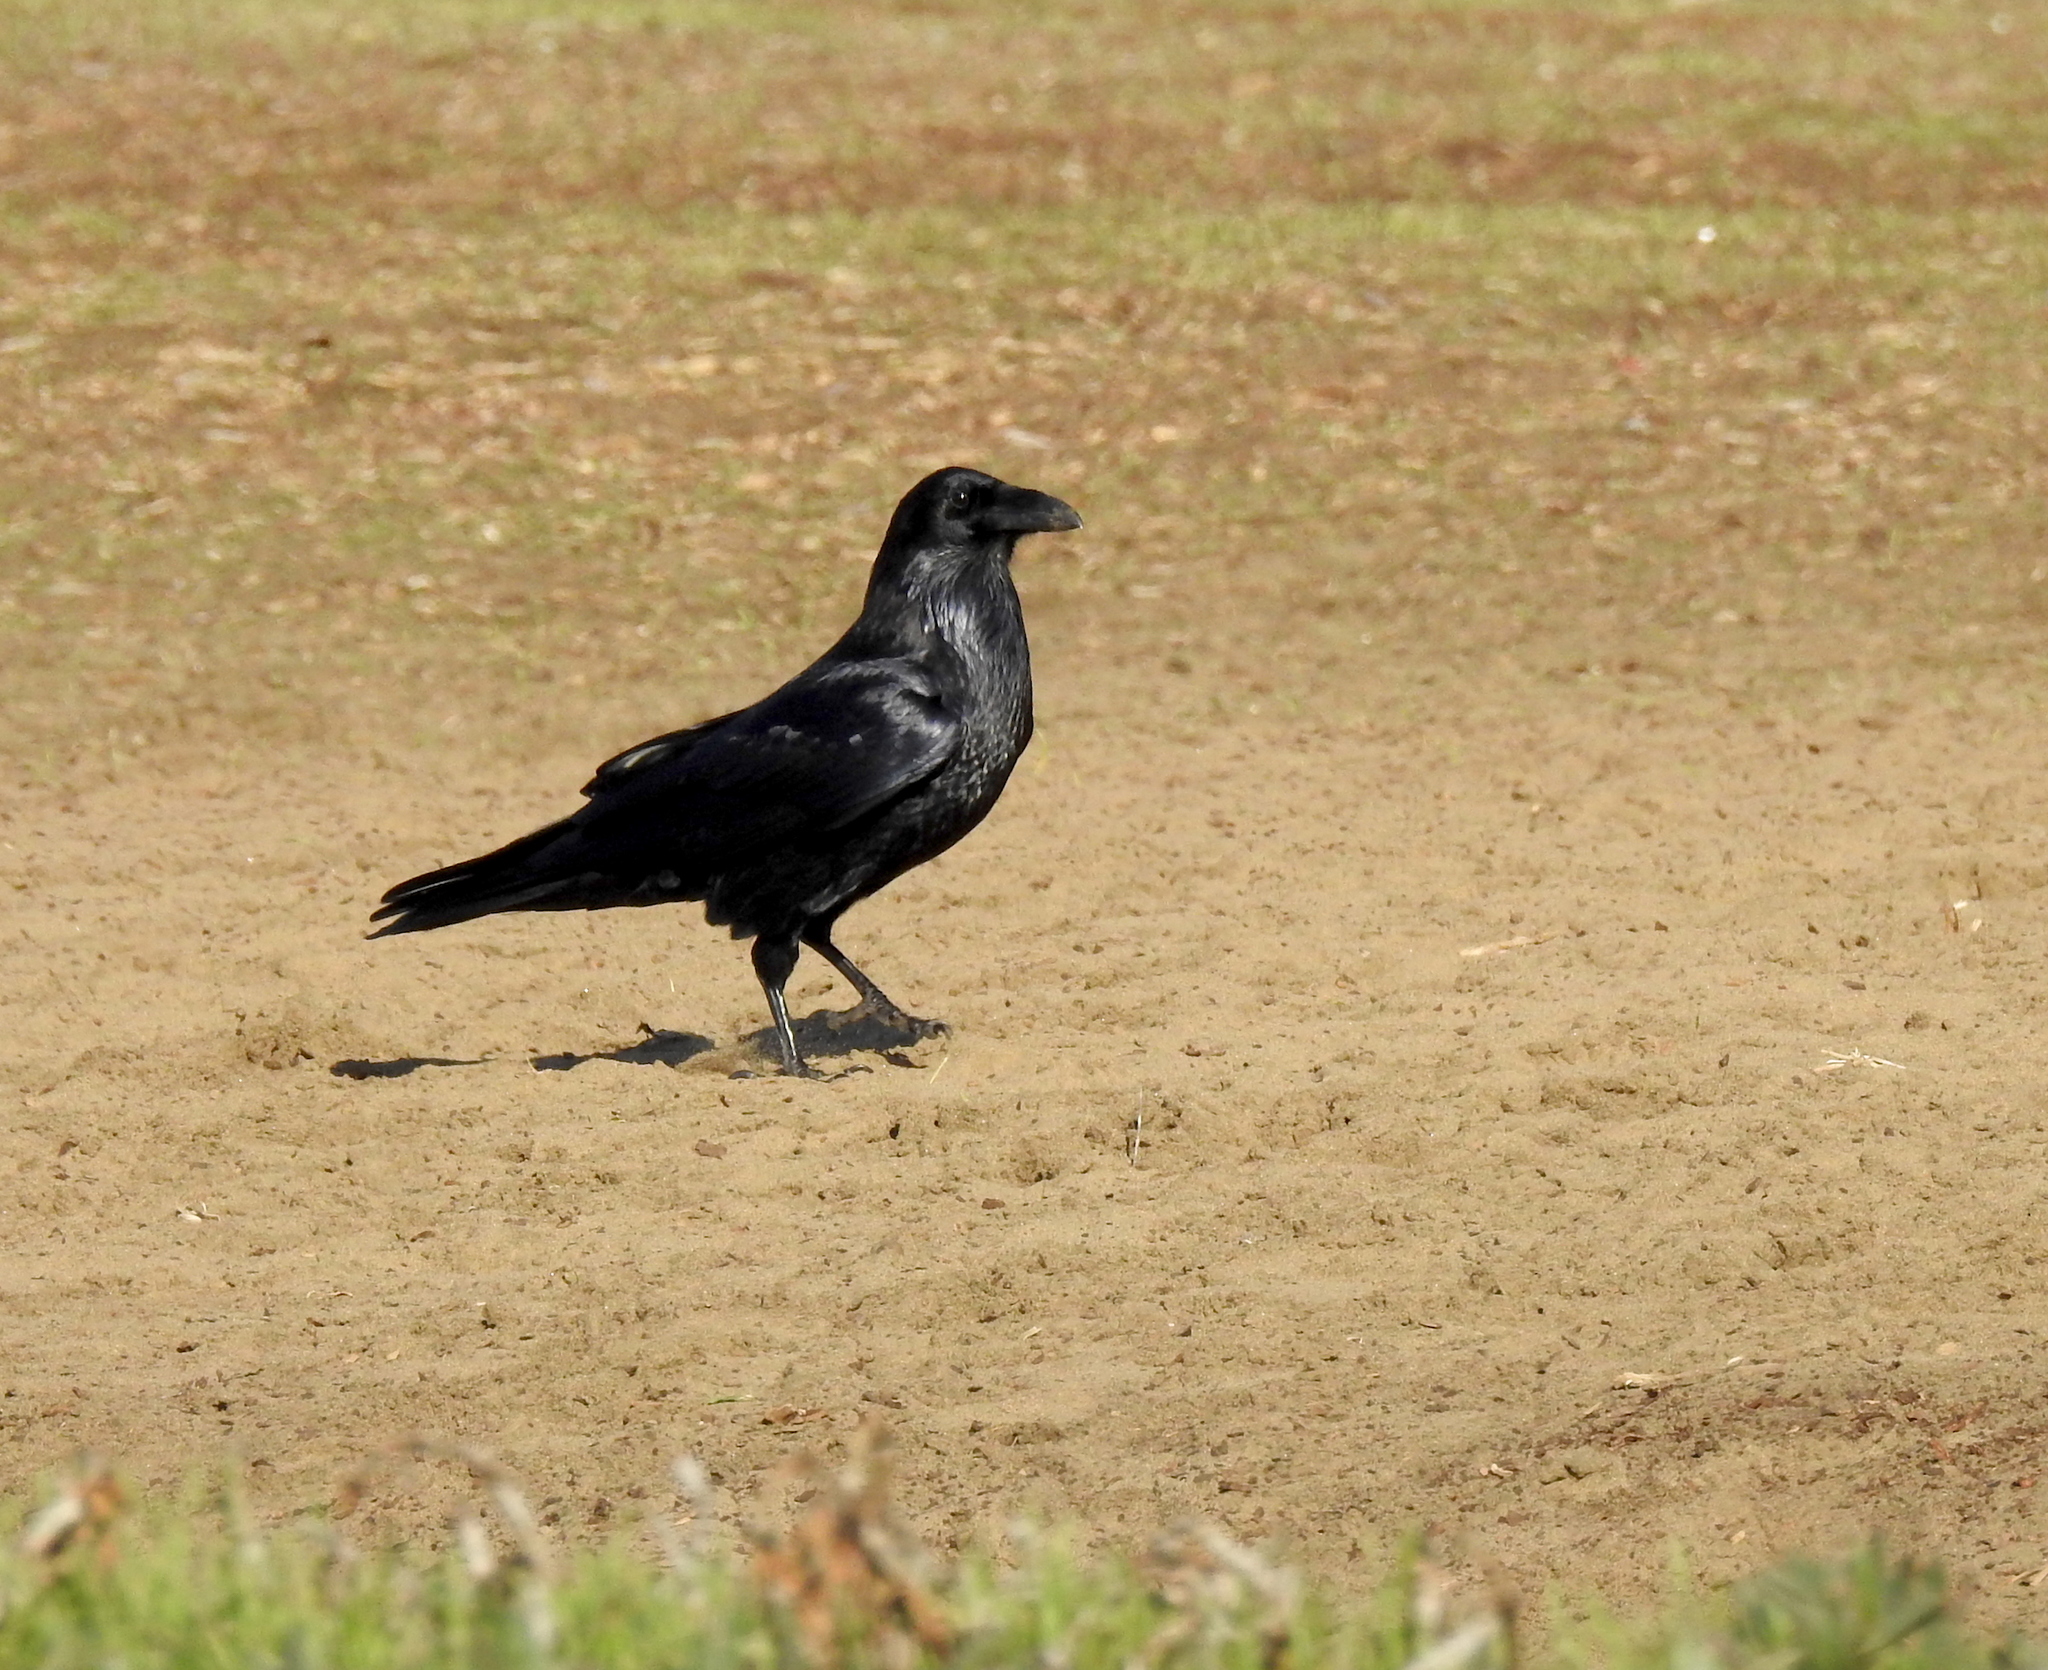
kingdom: Animalia
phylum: Chordata
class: Aves
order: Passeriformes
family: Corvidae
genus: Corvus
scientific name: Corvus corax
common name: Common raven
